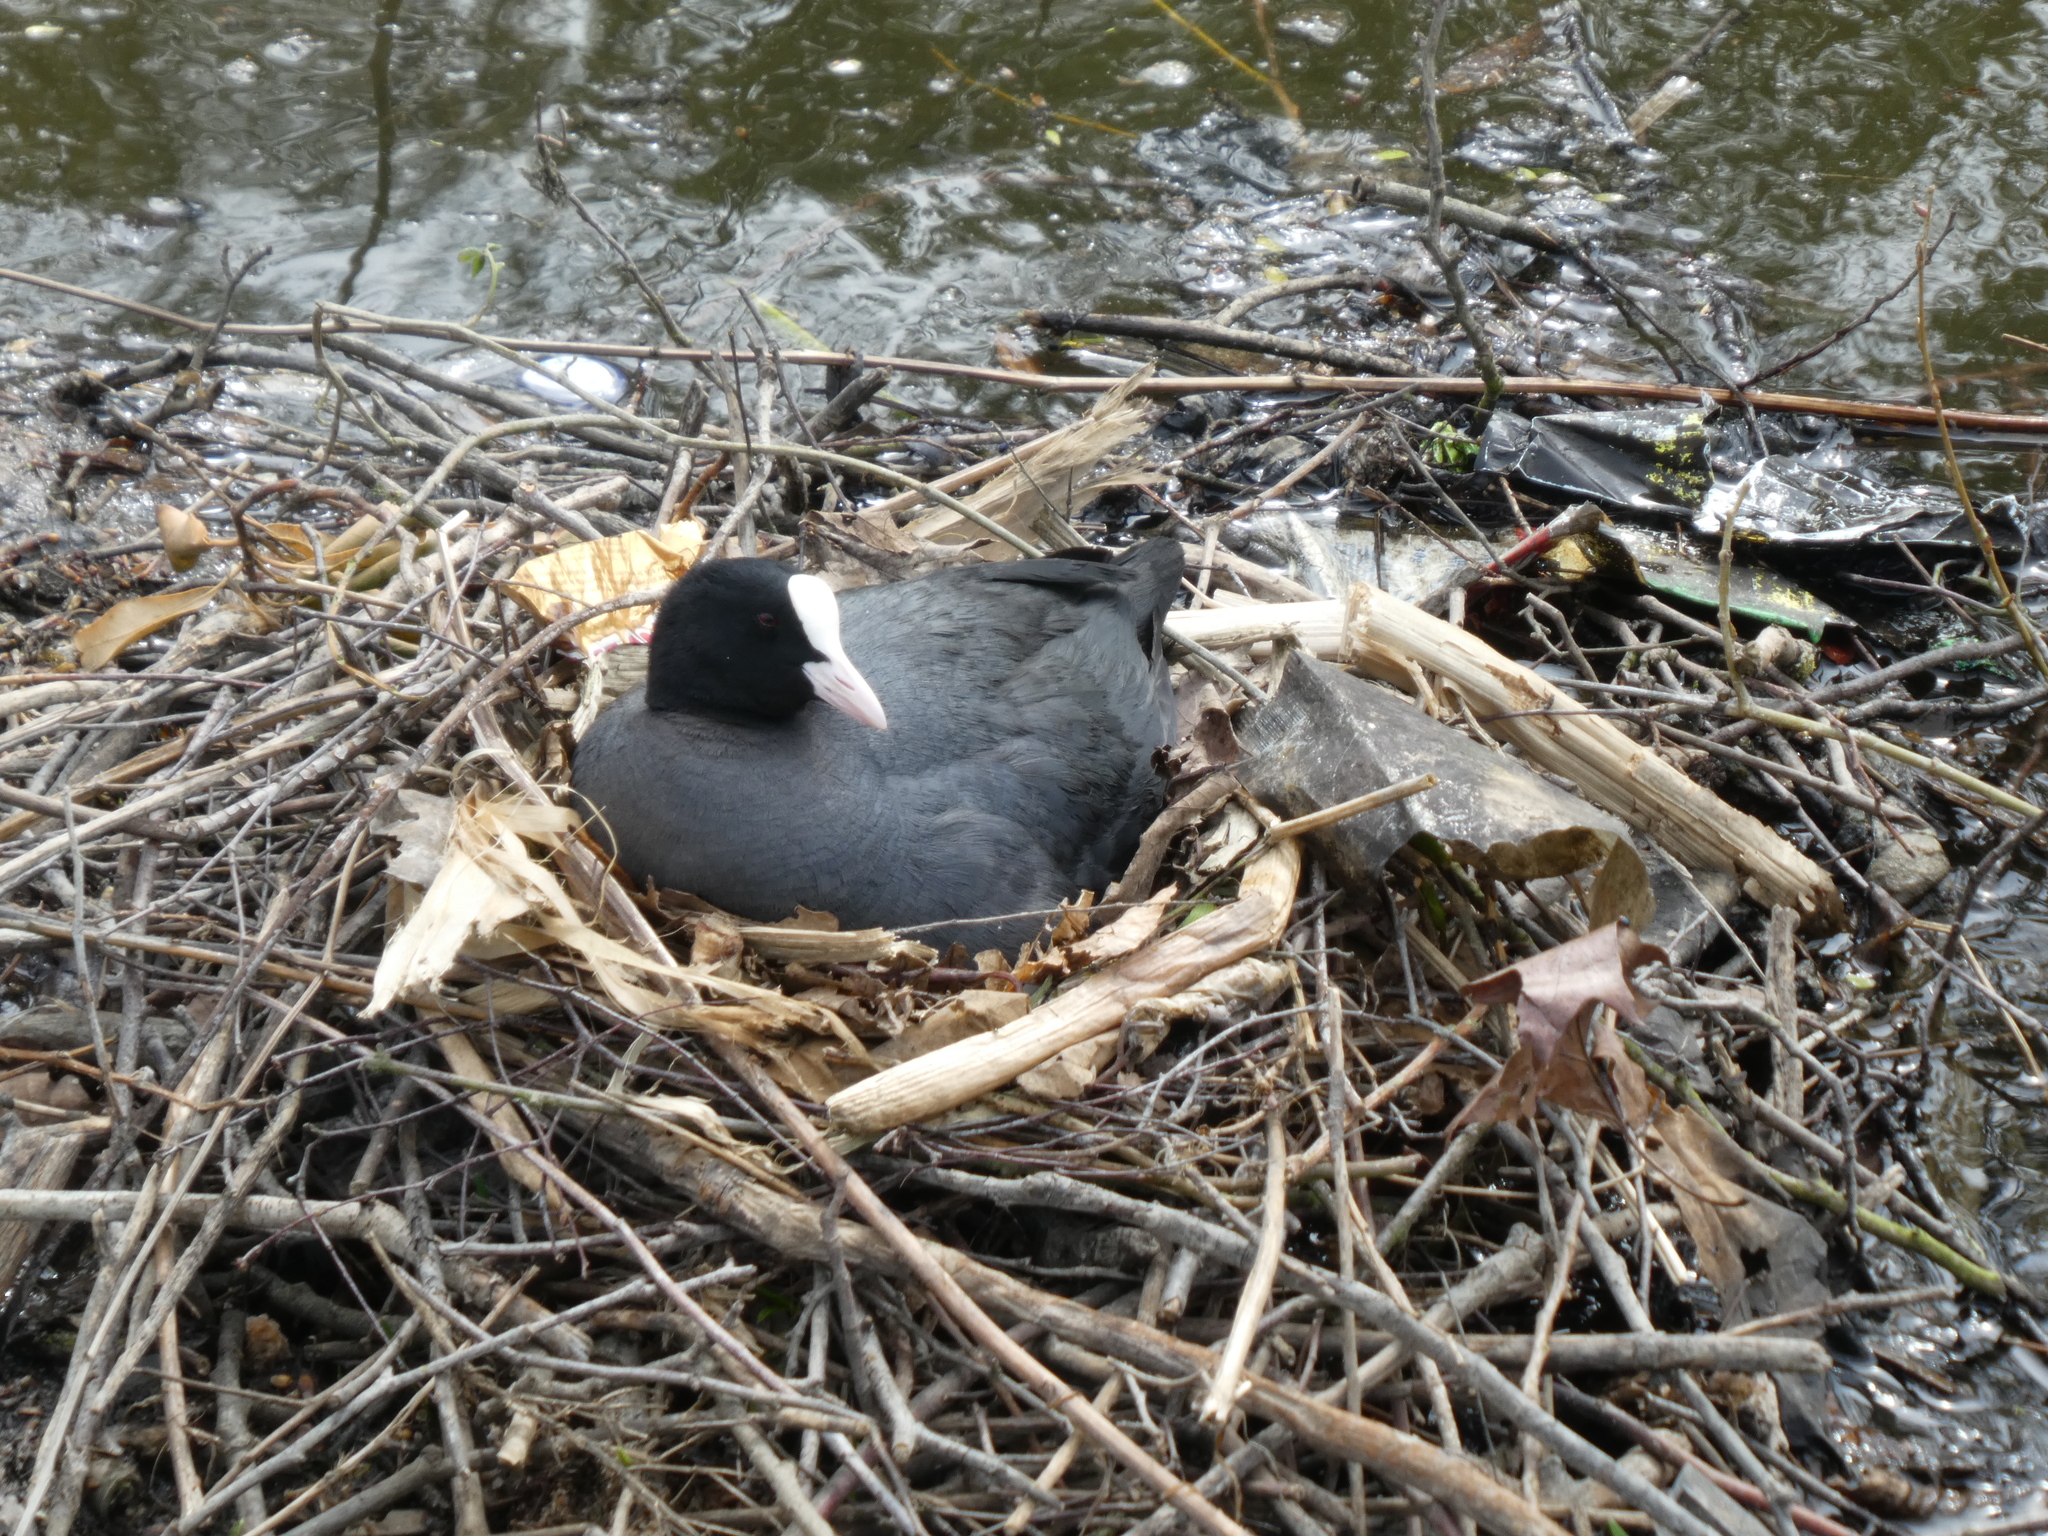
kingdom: Animalia
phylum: Chordata
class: Aves
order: Gruiformes
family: Rallidae
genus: Fulica
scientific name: Fulica atra
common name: Eurasian coot
